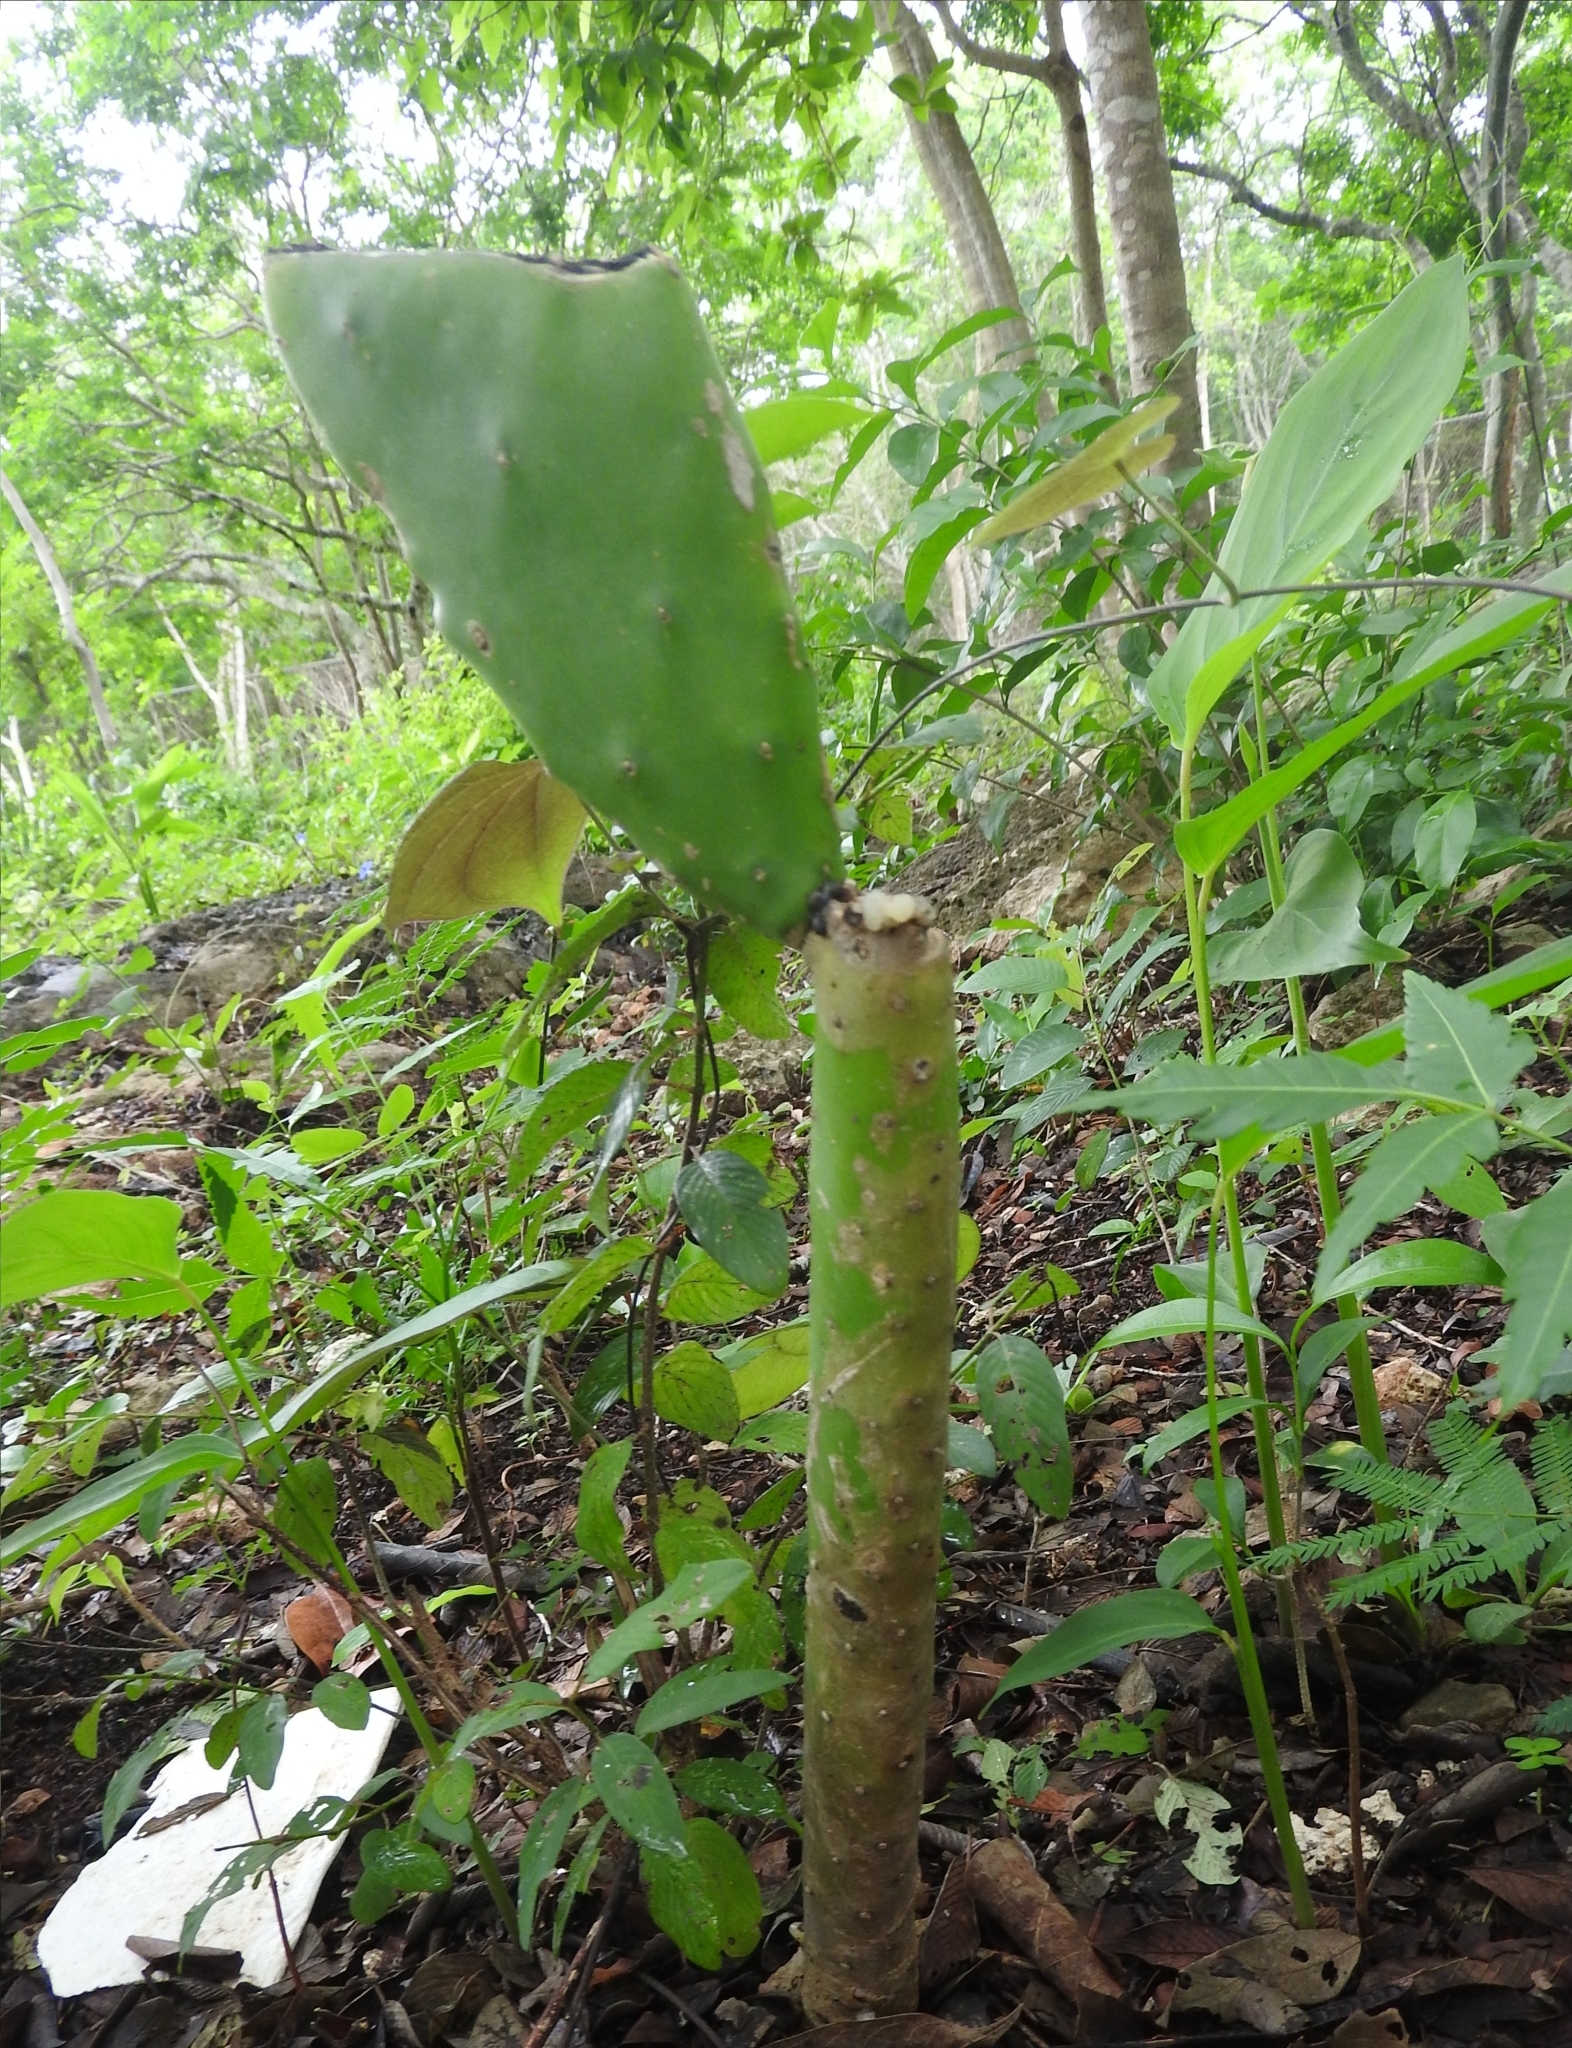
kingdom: Plantae
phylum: Tracheophyta
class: Magnoliopsida
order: Caryophyllales
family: Cactaceae
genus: Opuntia
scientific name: Opuntia cochenillifera
